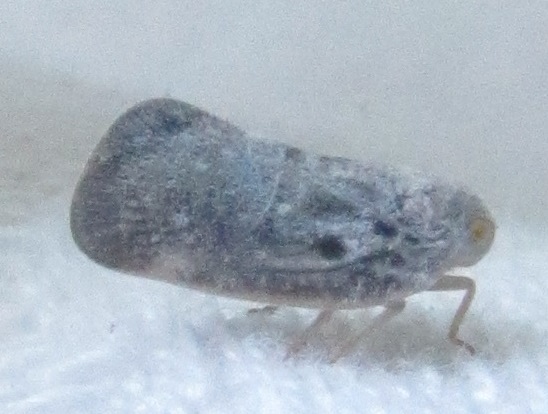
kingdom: Animalia
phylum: Arthropoda
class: Insecta
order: Hemiptera
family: Flatidae
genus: Metcalfa
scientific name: Metcalfa pruinosa
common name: Citrus flatid planthopper
